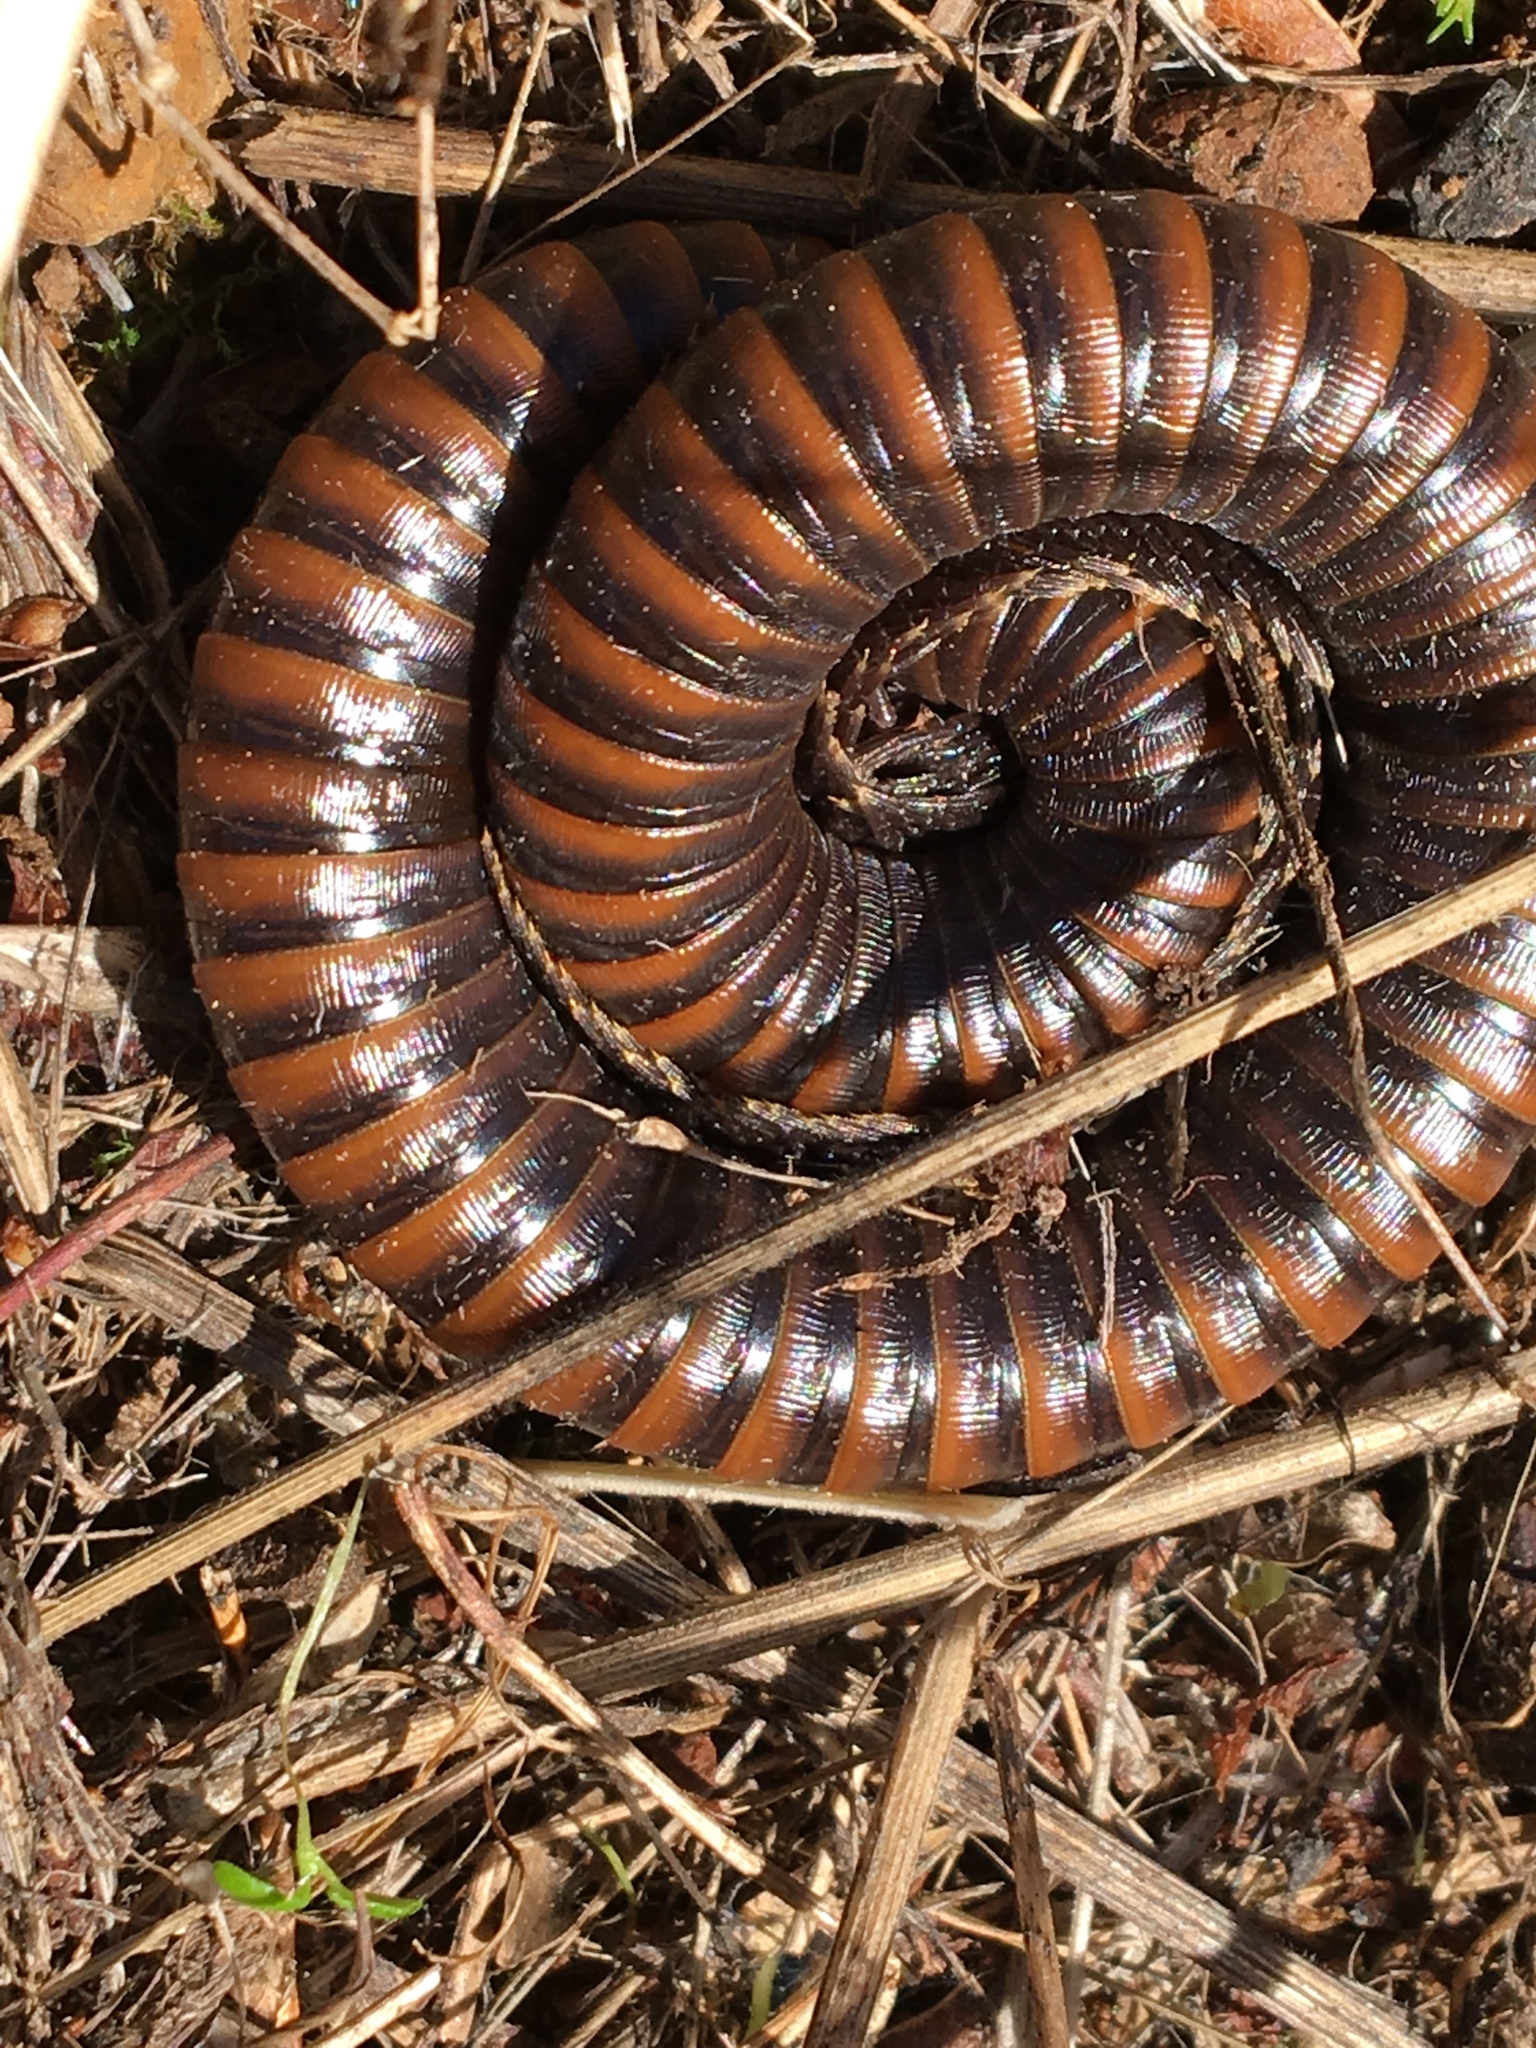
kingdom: Animalia
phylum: Arthropoda
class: Diplopoda
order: Julida
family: Paeromopodidae
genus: Paeromopus
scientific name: Paeromopus angusticeps
